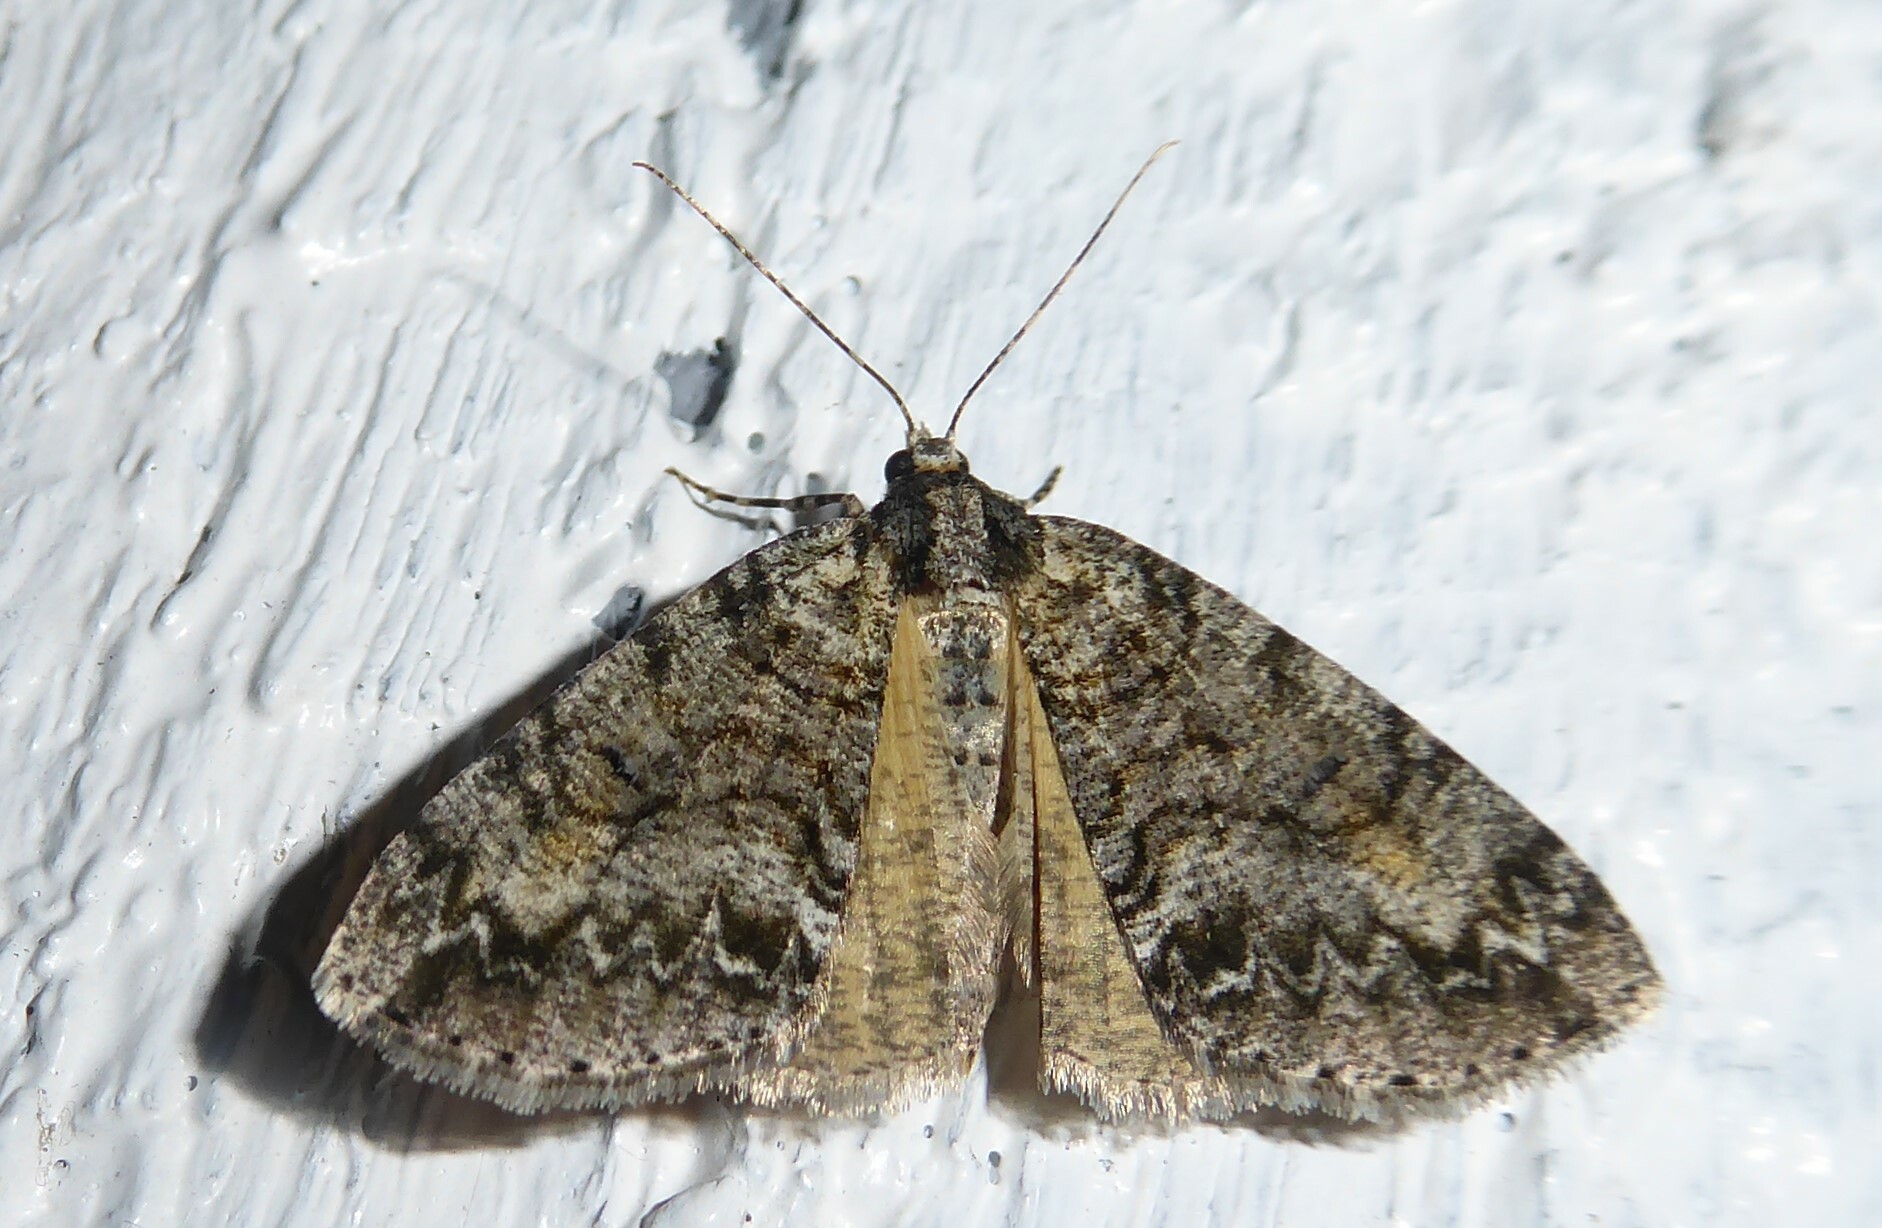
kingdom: Animalia
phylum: Arthropoda
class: Insecta
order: Lepidoptera
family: Geometridae
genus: Pseudocoremia
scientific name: Pseudocoremia suavis
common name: Common forest looper
